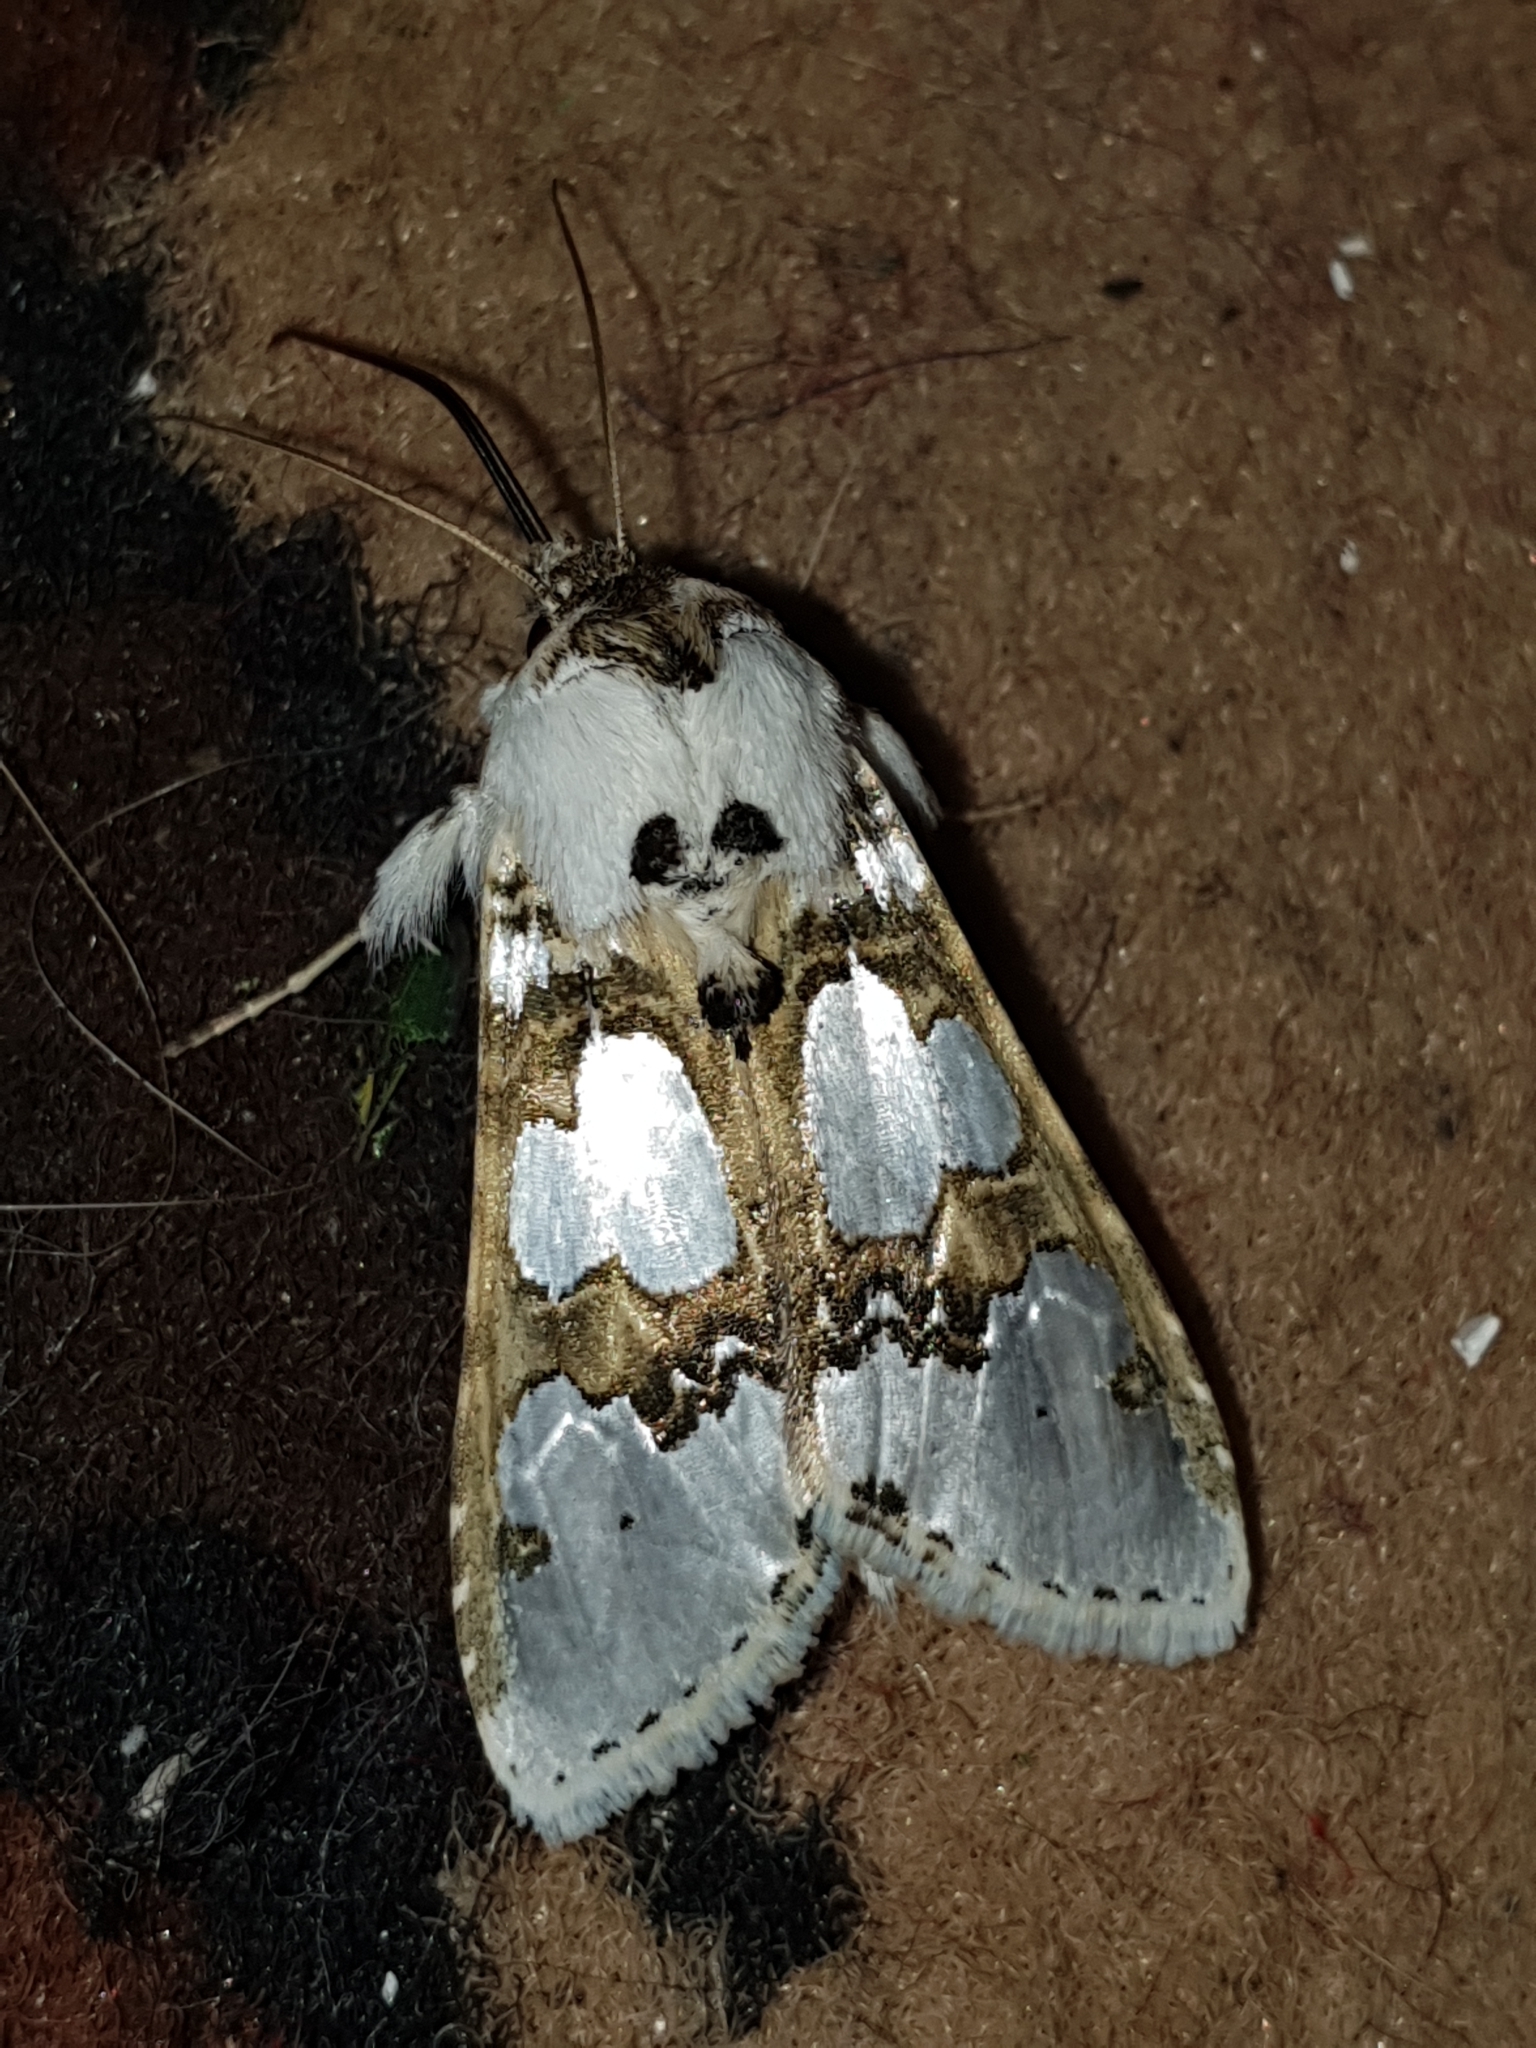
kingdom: Animalia
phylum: Arthropoda
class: Insecta
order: Lepidoptera
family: Noctuidae
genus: Cucullia
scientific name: Cucullia magnifica
